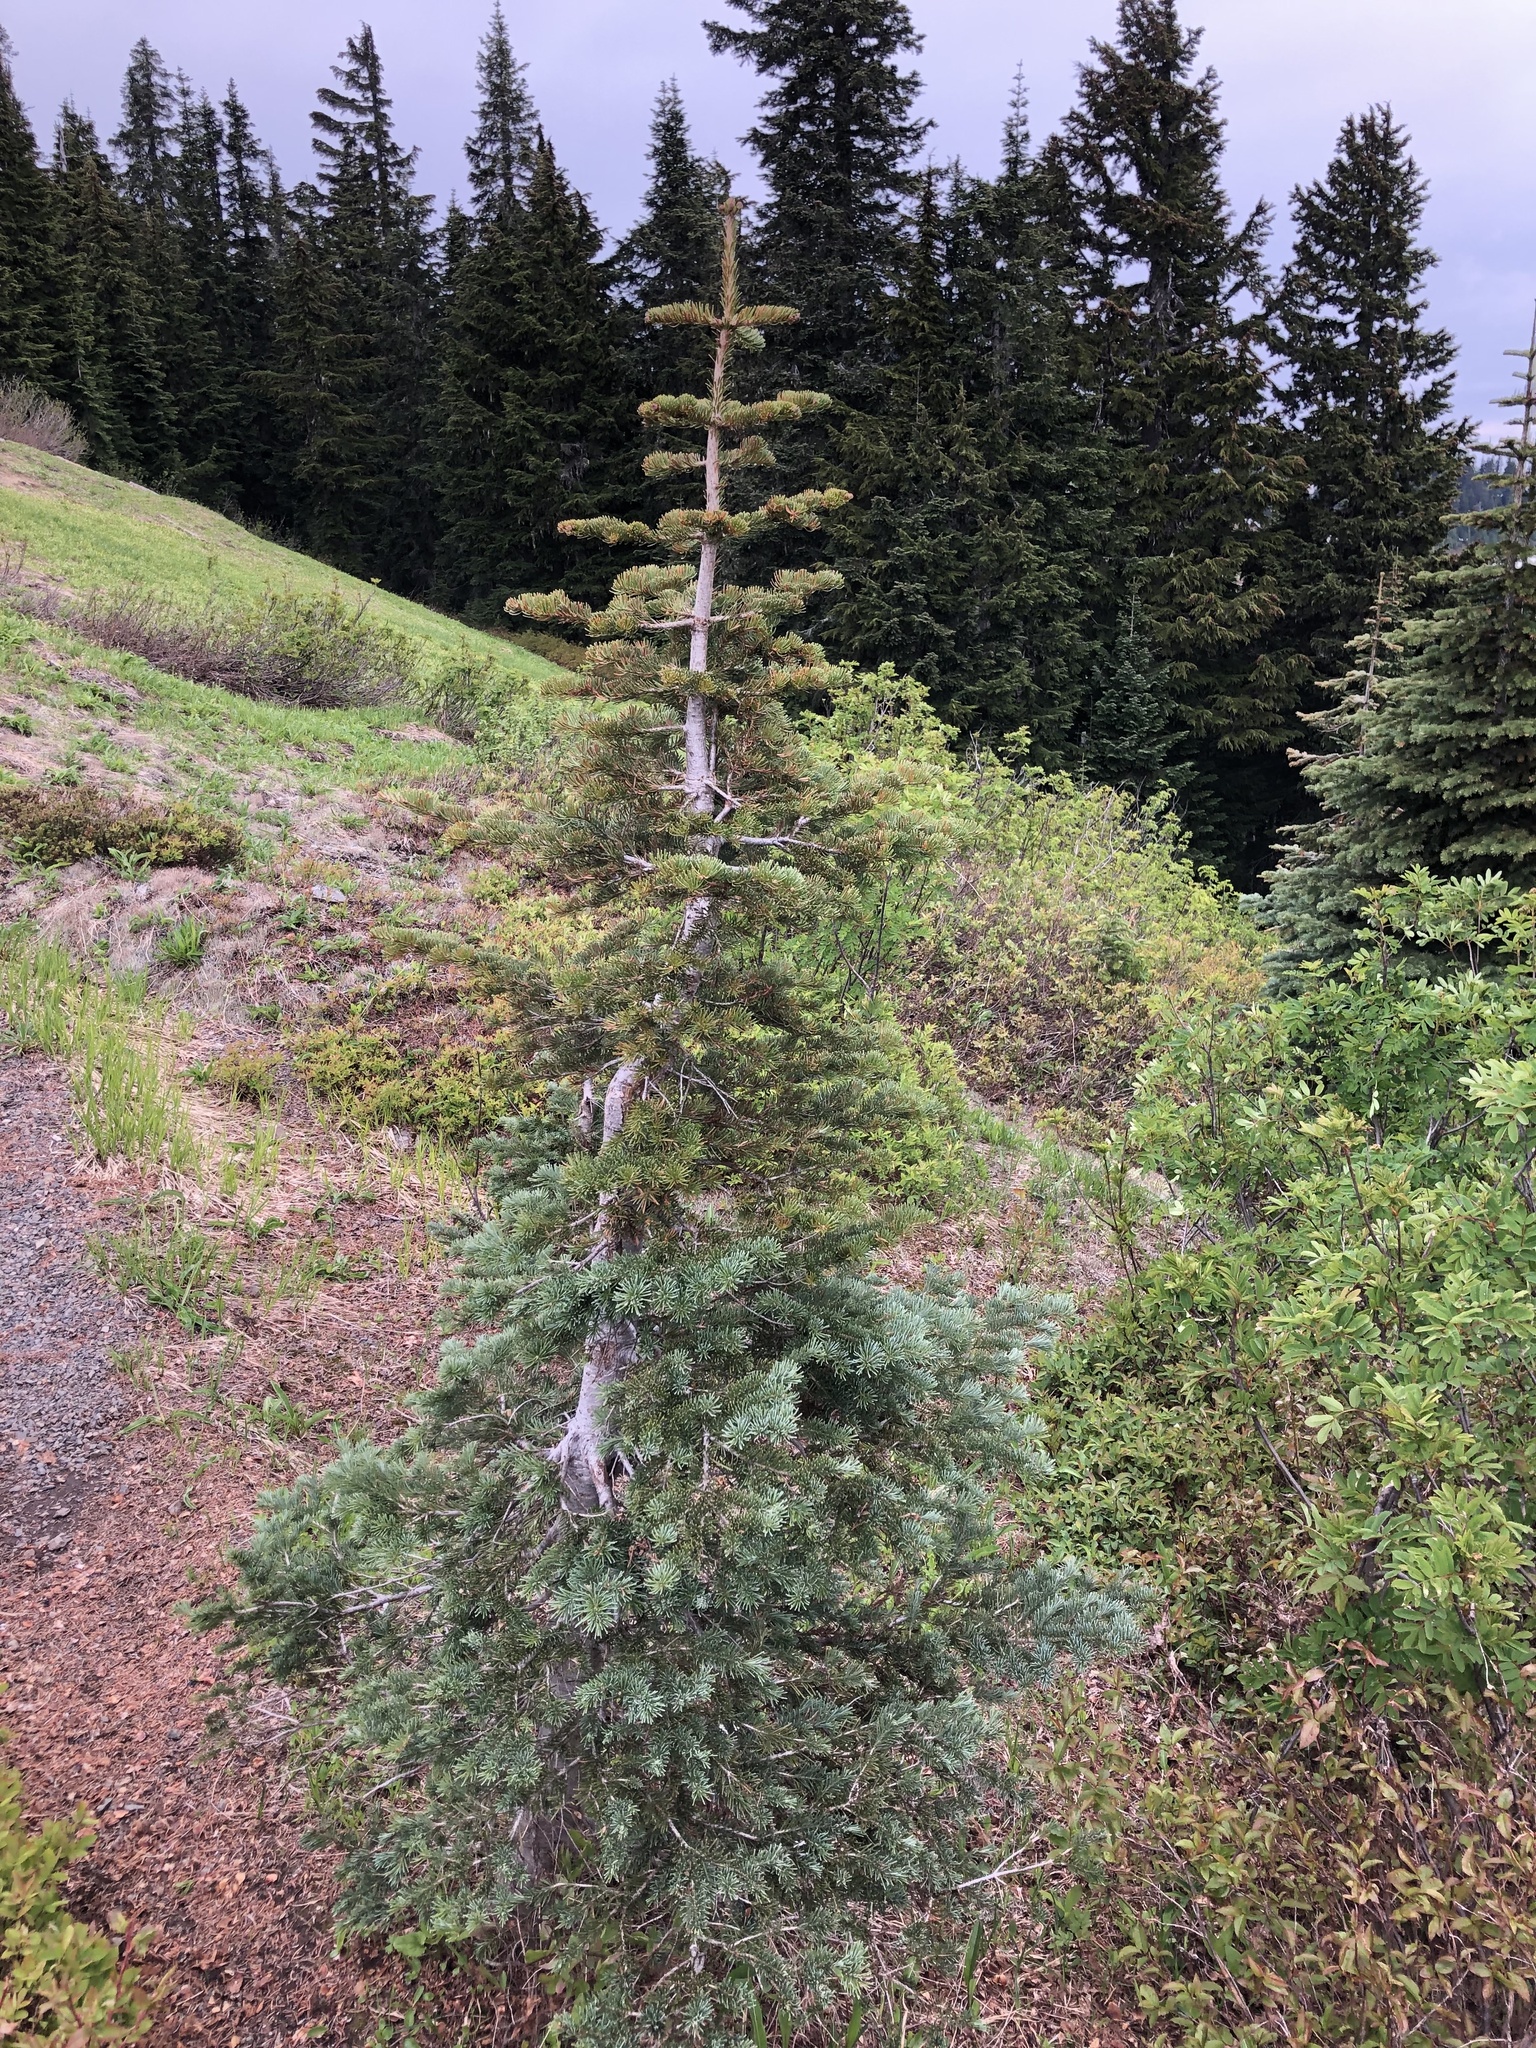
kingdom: Plantae
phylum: Tracheophyta
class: Pinopsida
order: Pinales
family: Pinaceae
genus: Abies
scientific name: Abies lasiocarpa
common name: Subalpine fir
